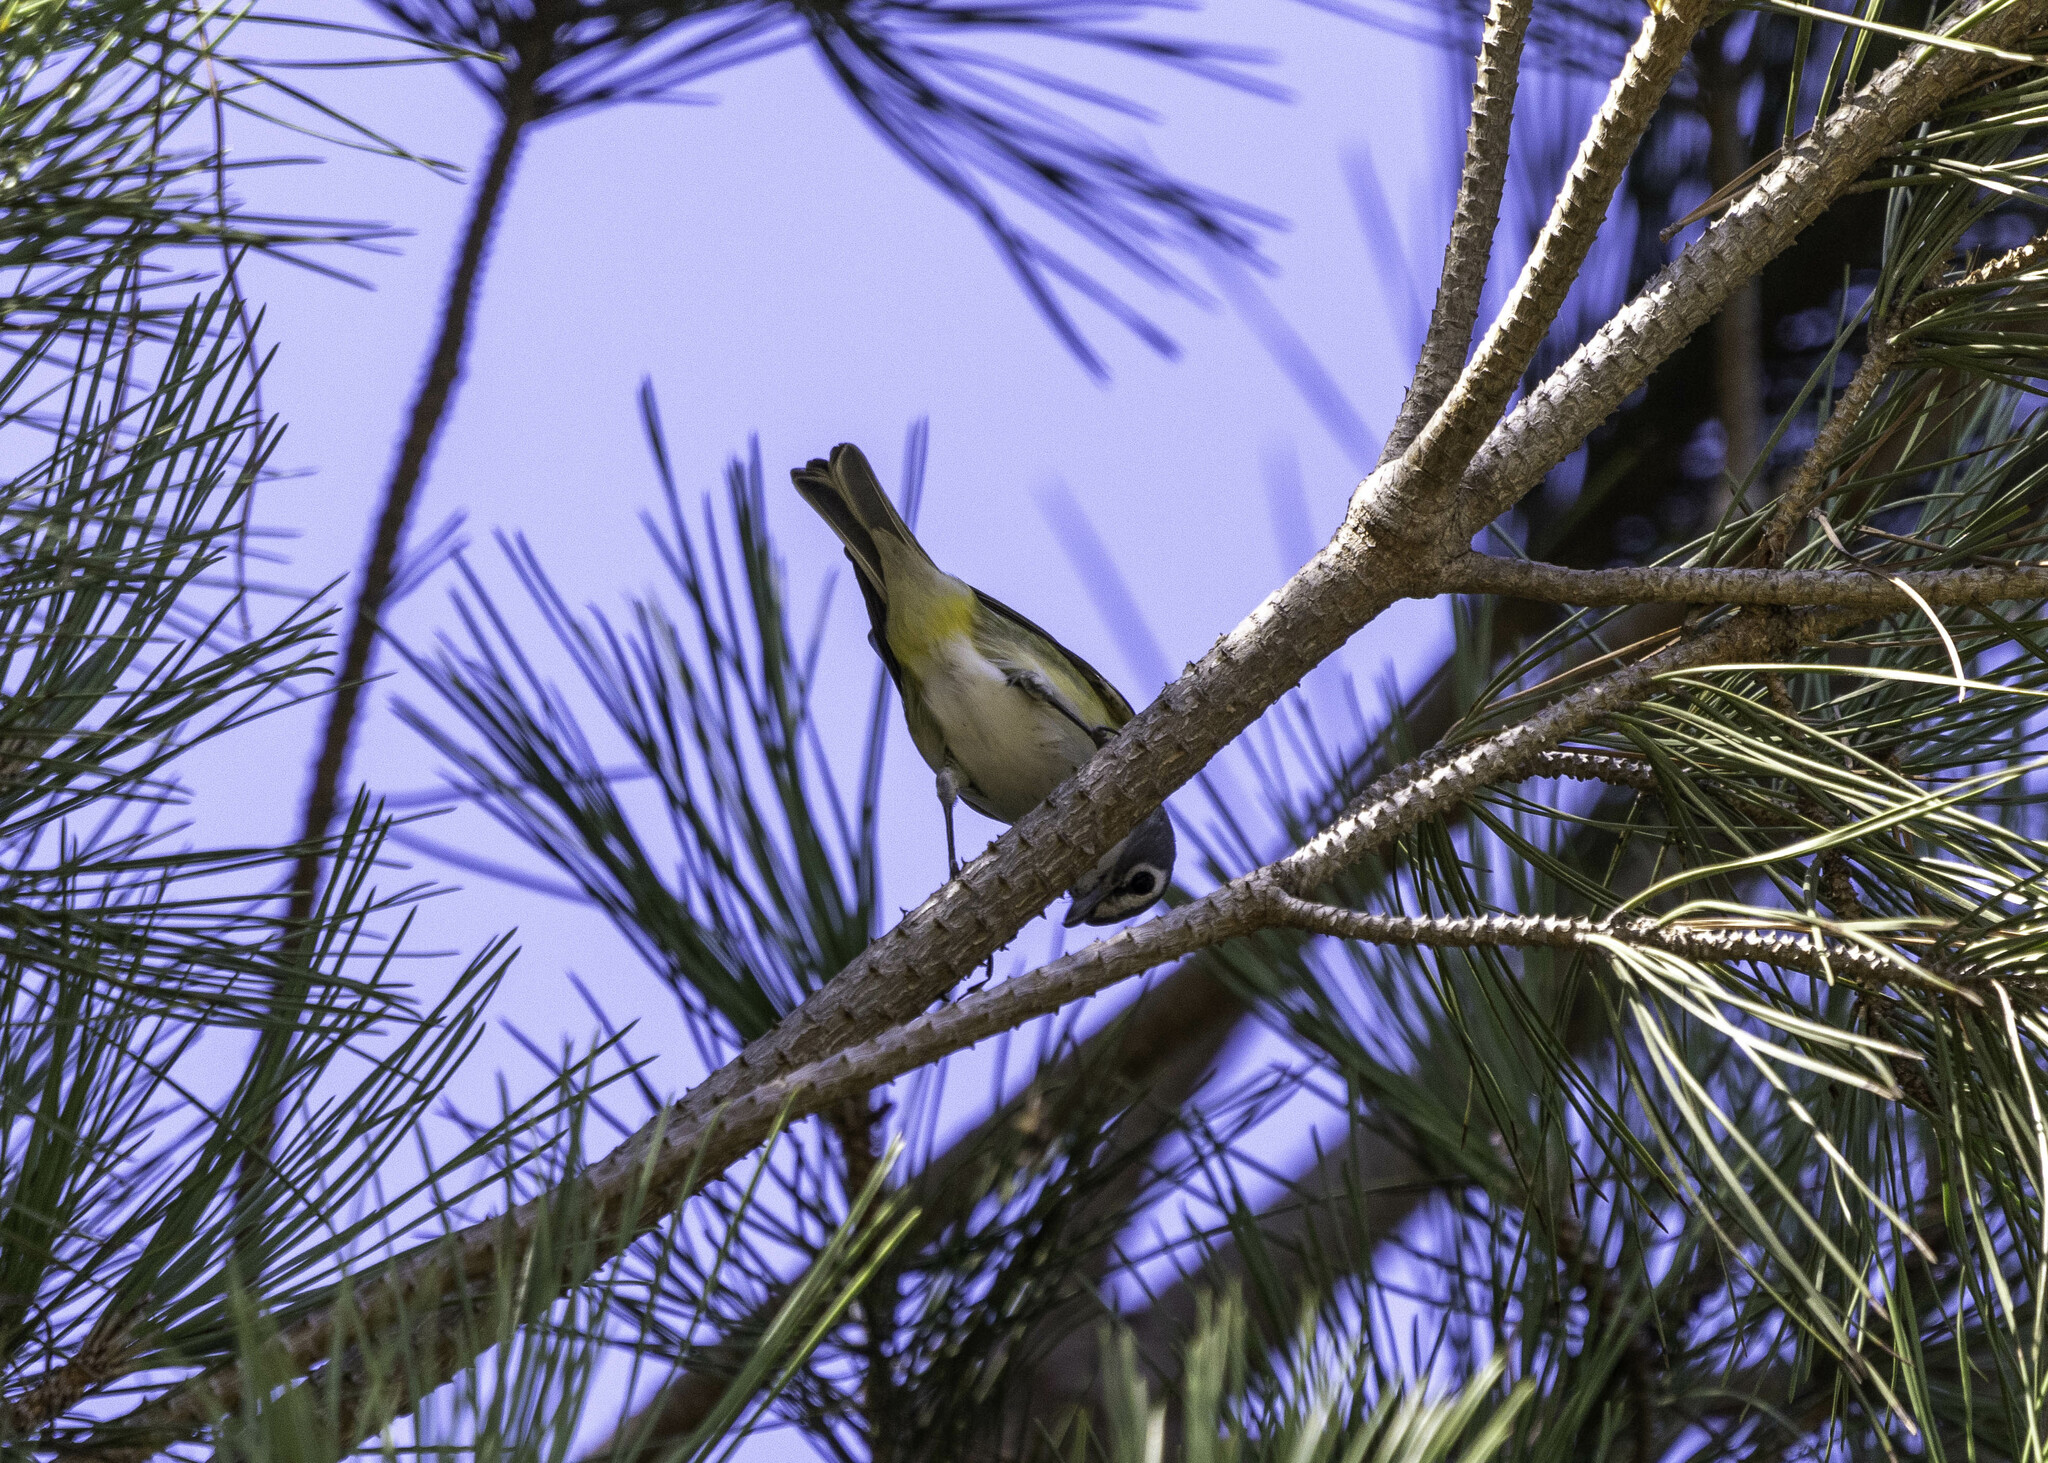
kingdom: Animalia
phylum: Chordata
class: Aves
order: Passeriformes
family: Vireonidae
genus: Vireo
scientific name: Vireo solitarius
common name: Blue-headed vireo
